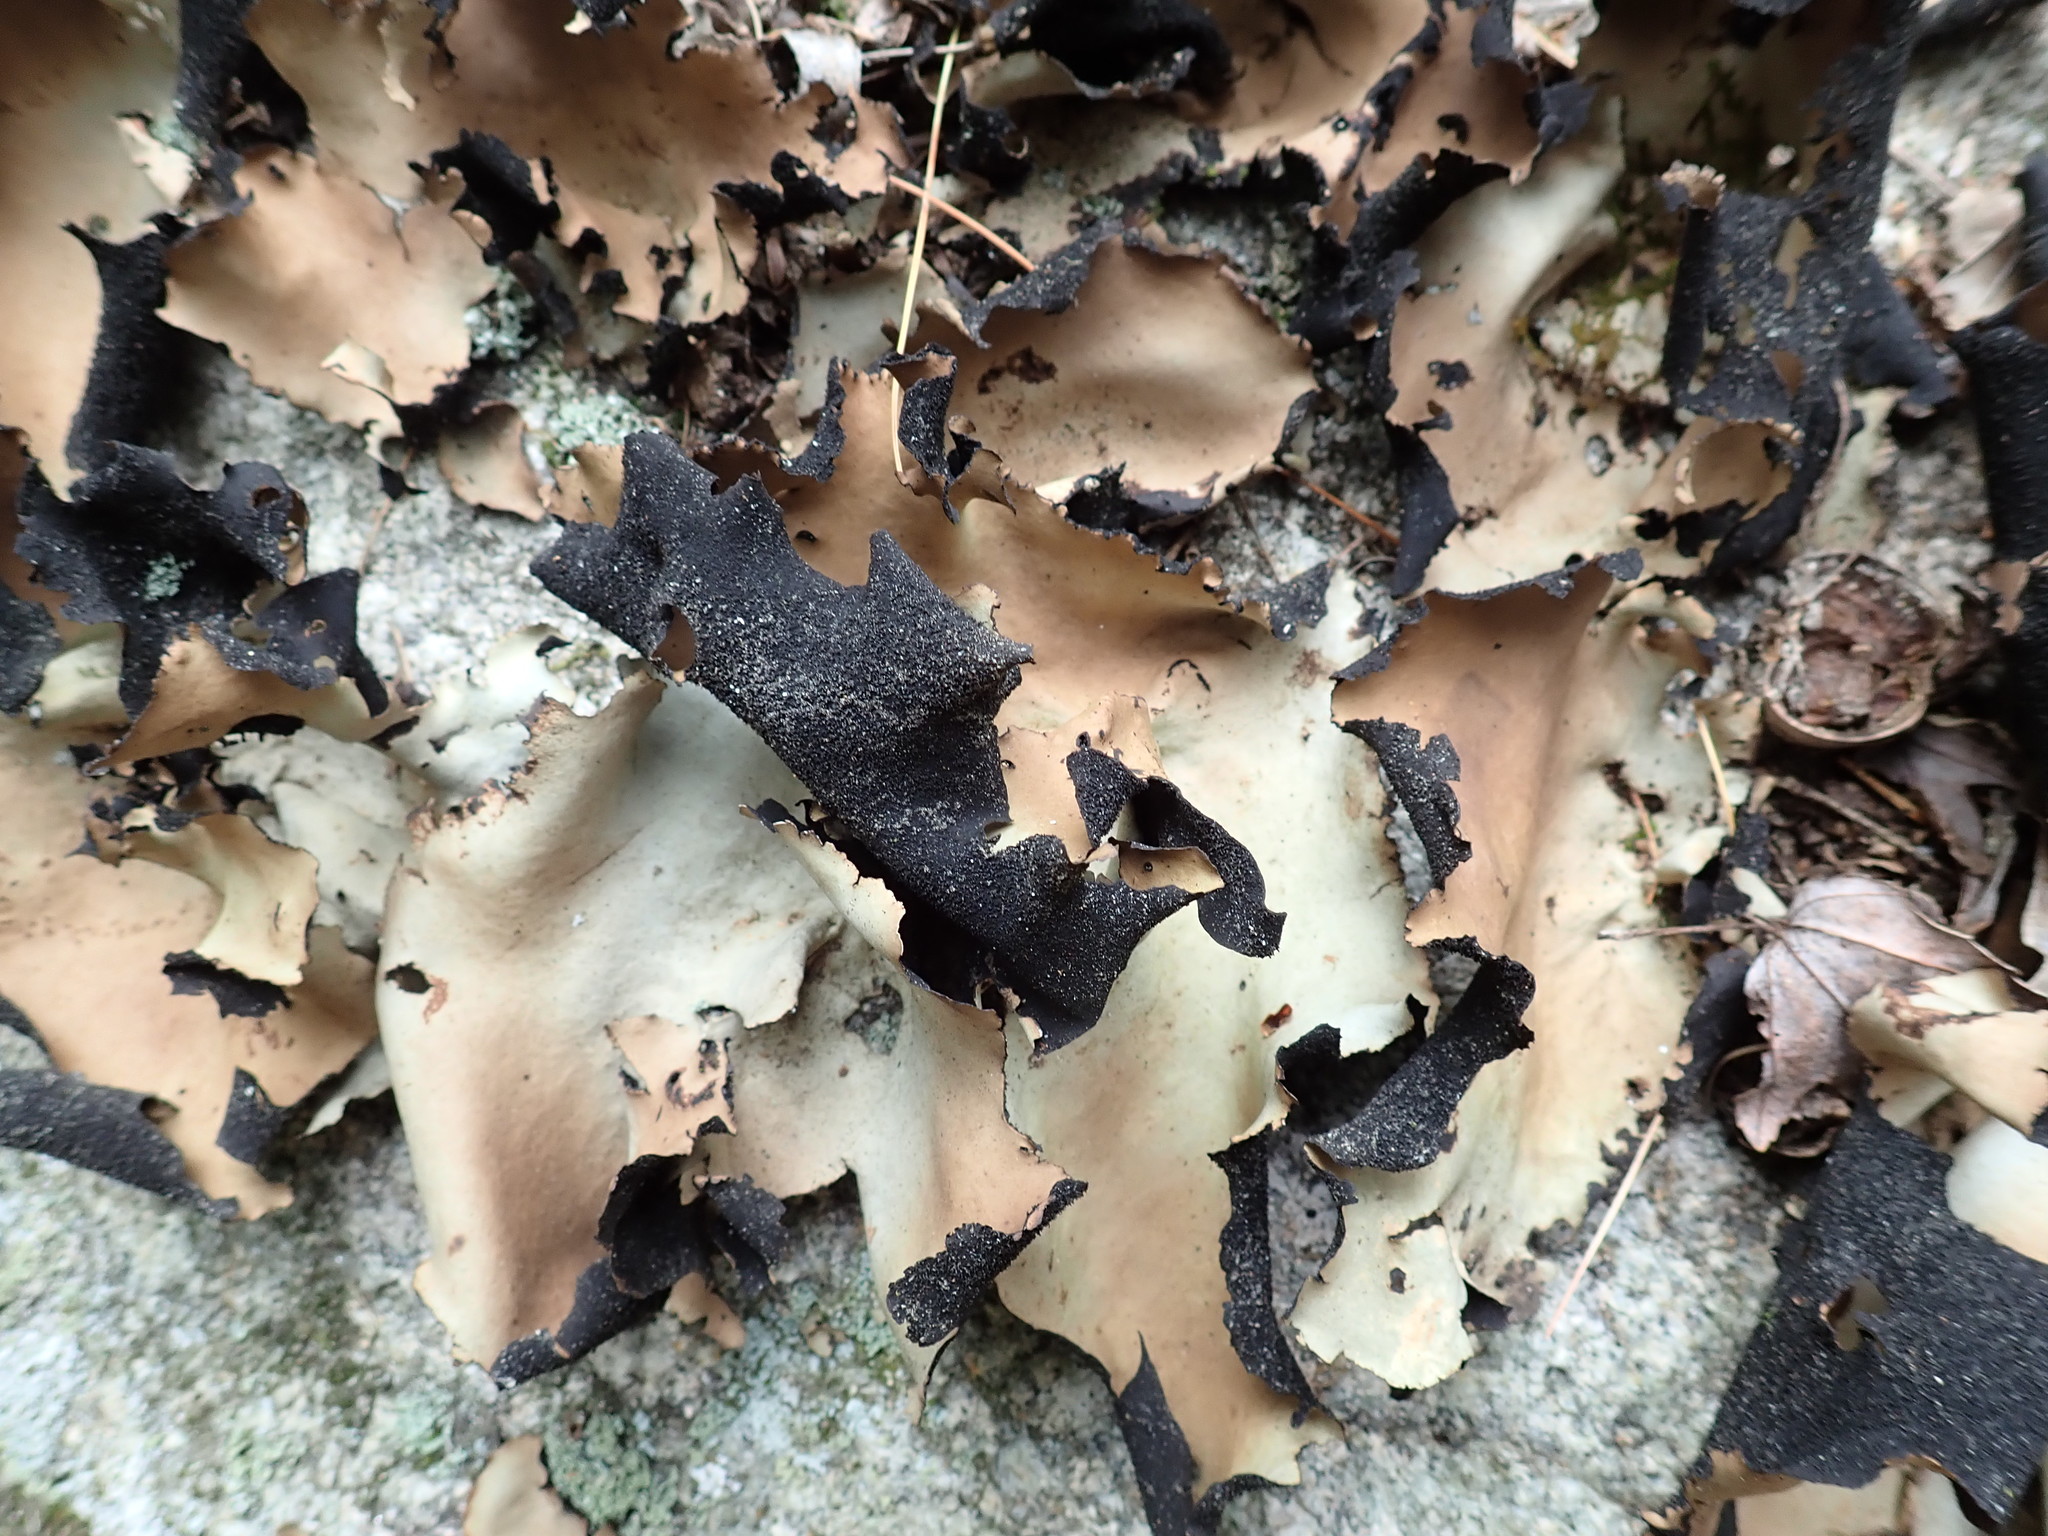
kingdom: Fungi
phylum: Ascomycota
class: Lecanoromycetes
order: Umbilicariales
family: Umbilicariaceae
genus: Umbilicaria
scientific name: Umbilicaria mammulata
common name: Smooth rock tripe
